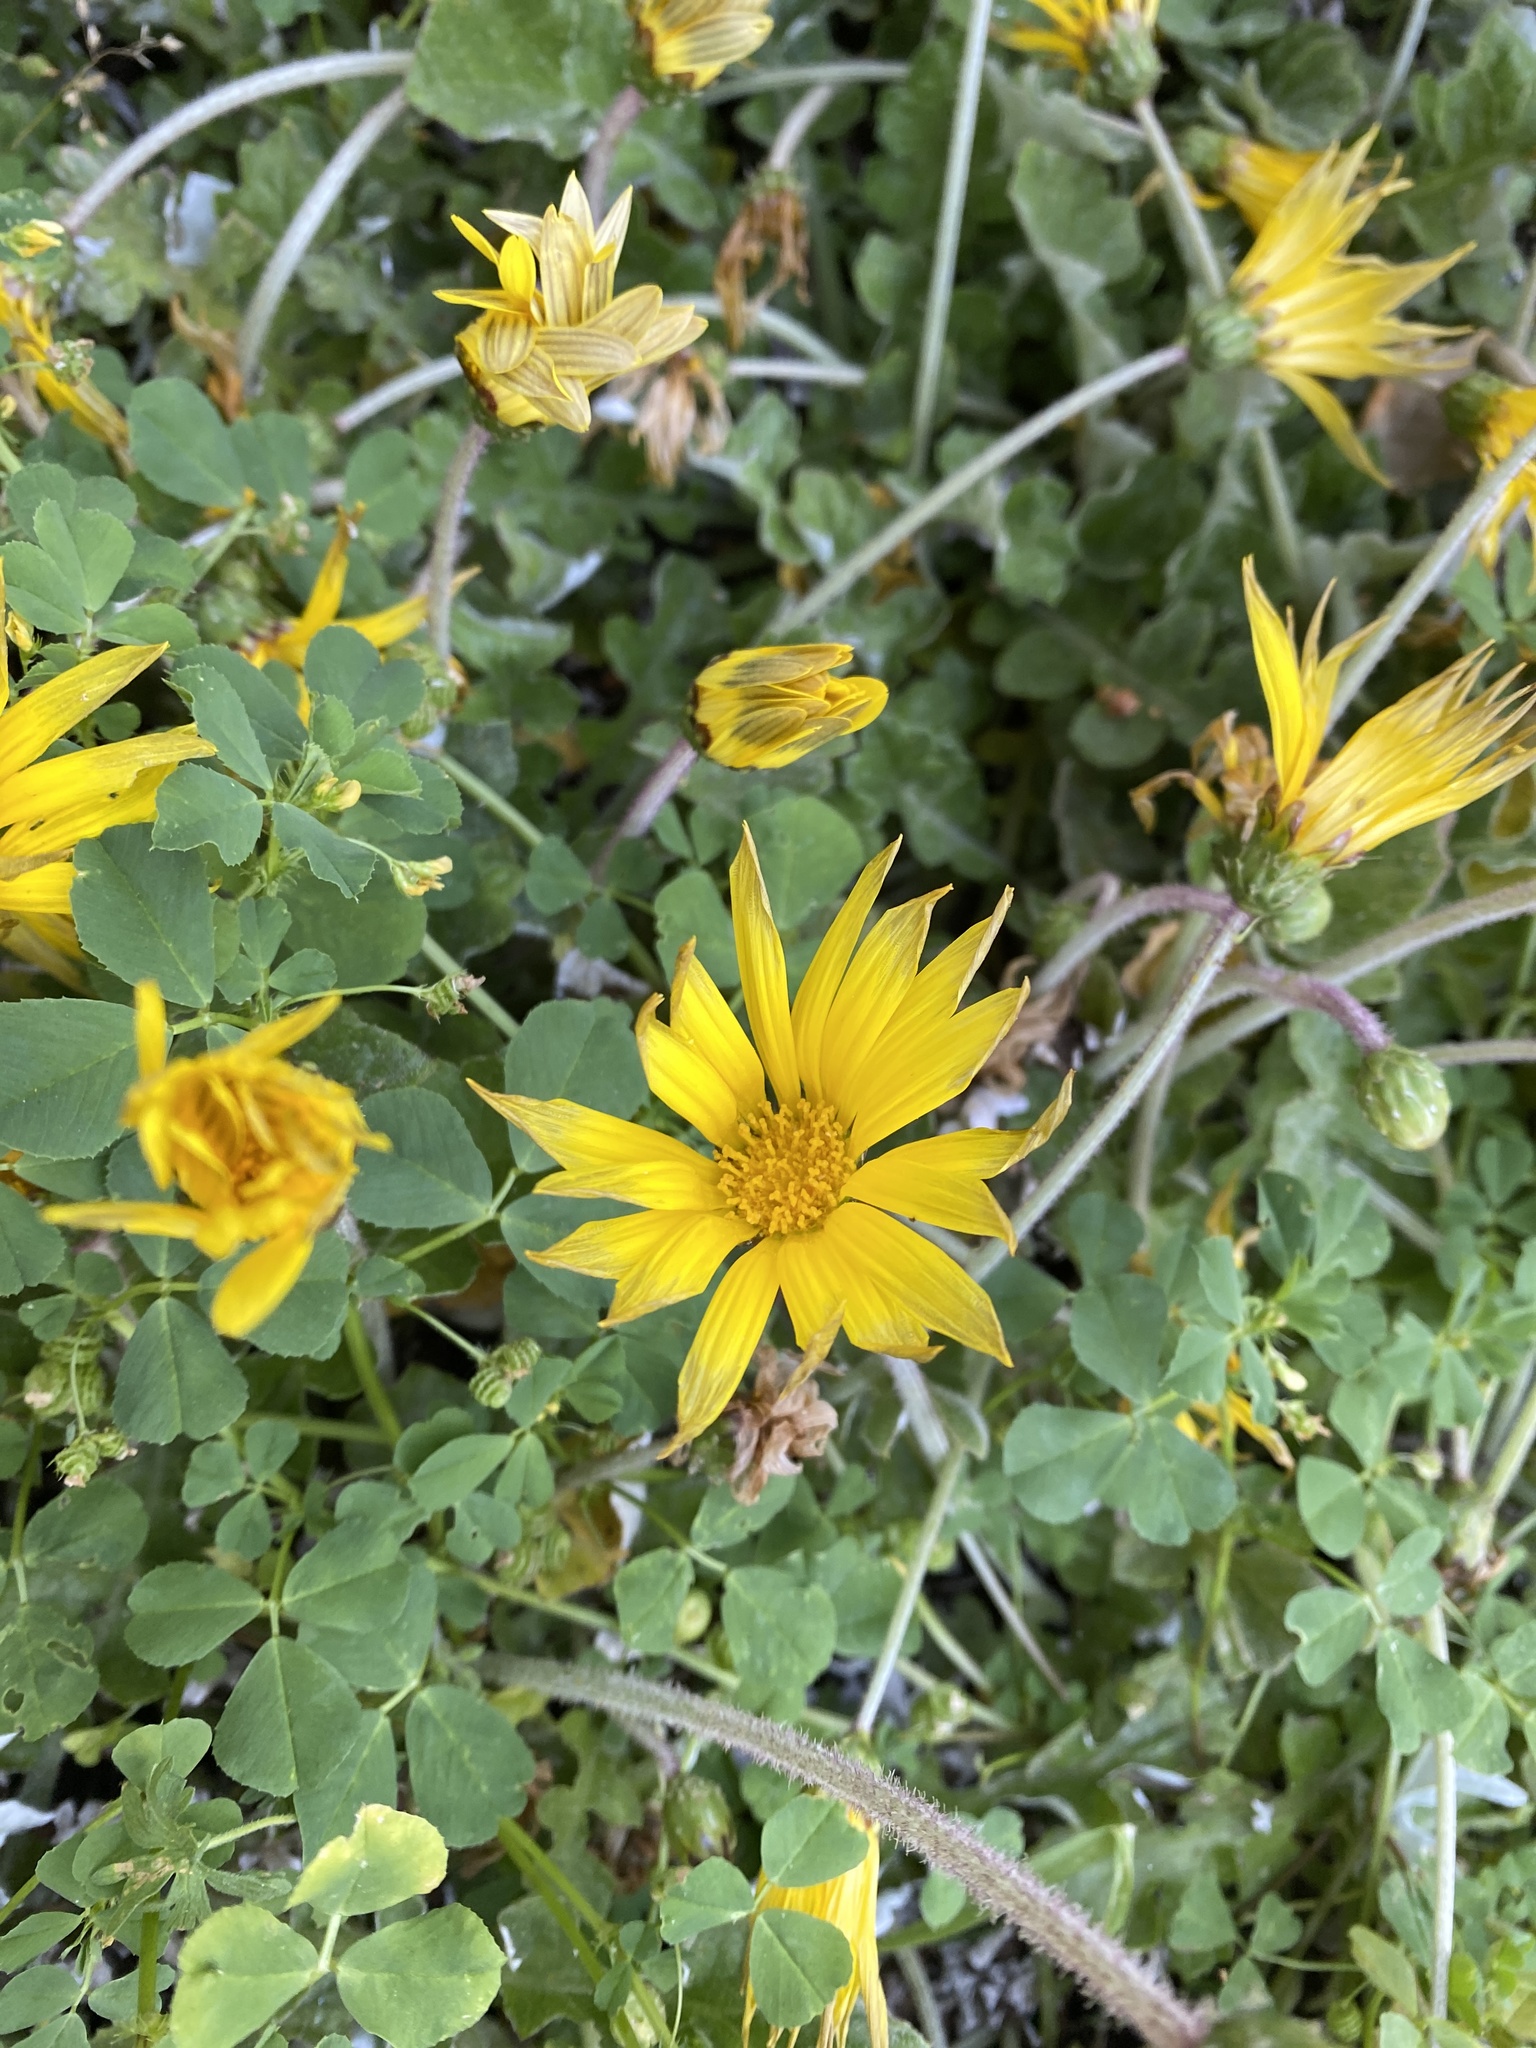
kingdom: Plantae
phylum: Tracheophyta
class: Magnoliopsida
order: Asterales
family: Asteraceae
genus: Arctotheca
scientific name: Arctotheca prostrata
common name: Capeweed
